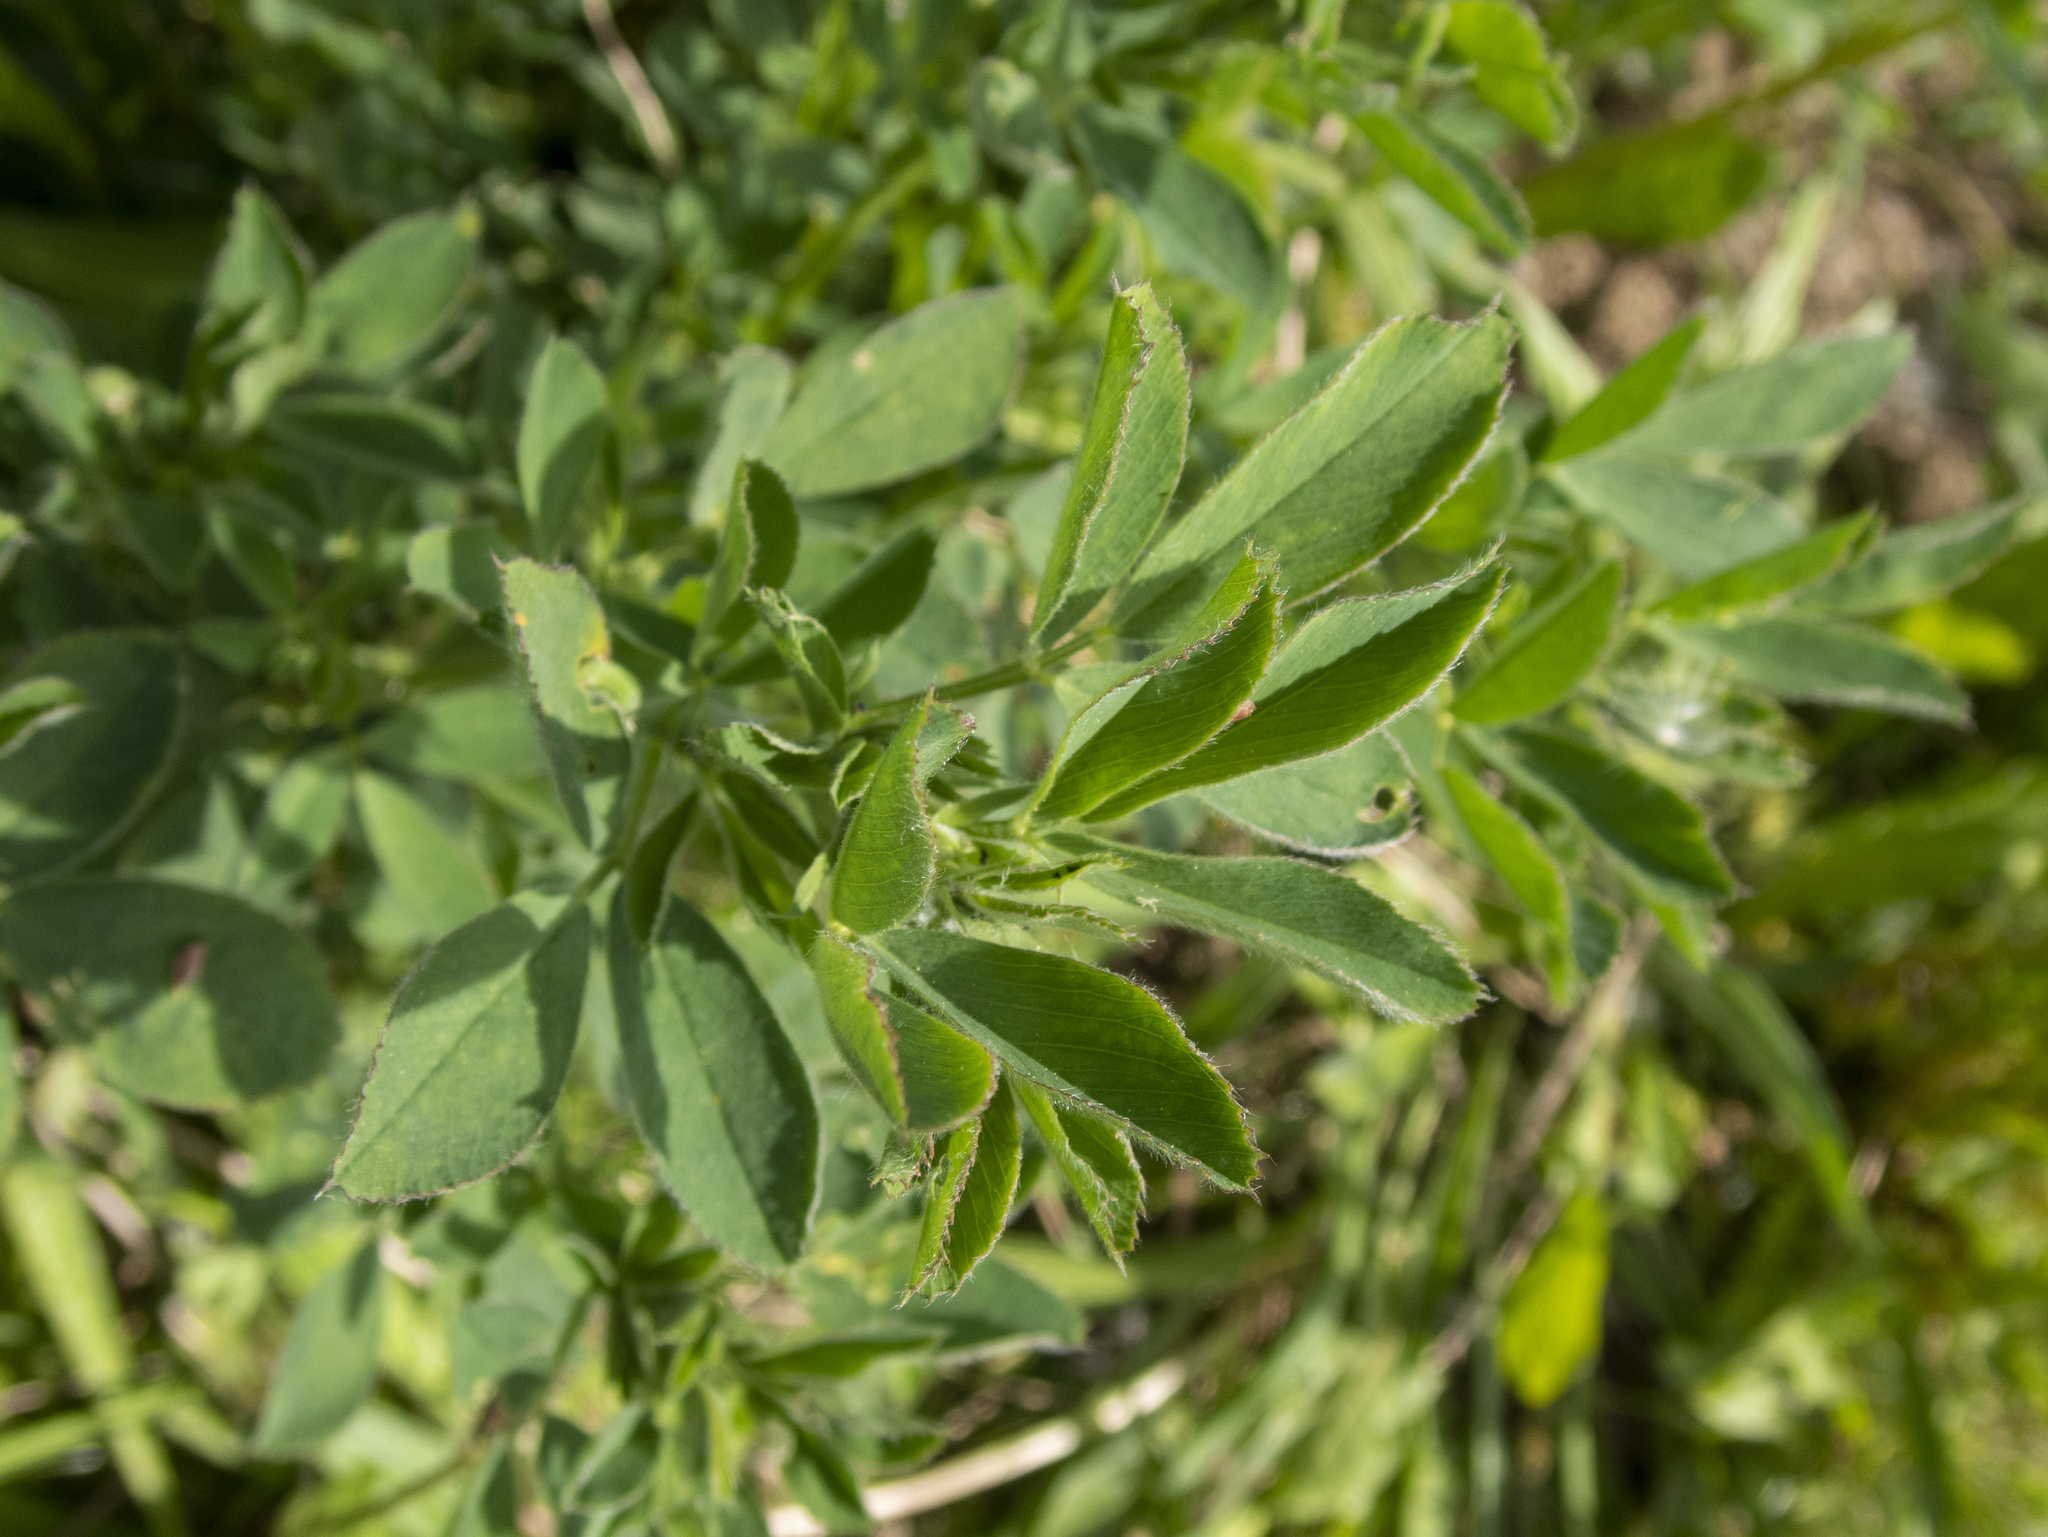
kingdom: Plantae
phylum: Tracheophyta
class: Magnoliopsida
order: Fabales
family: Fabaceae
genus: Medicago
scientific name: Medicago sativa
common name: Alfalfa
